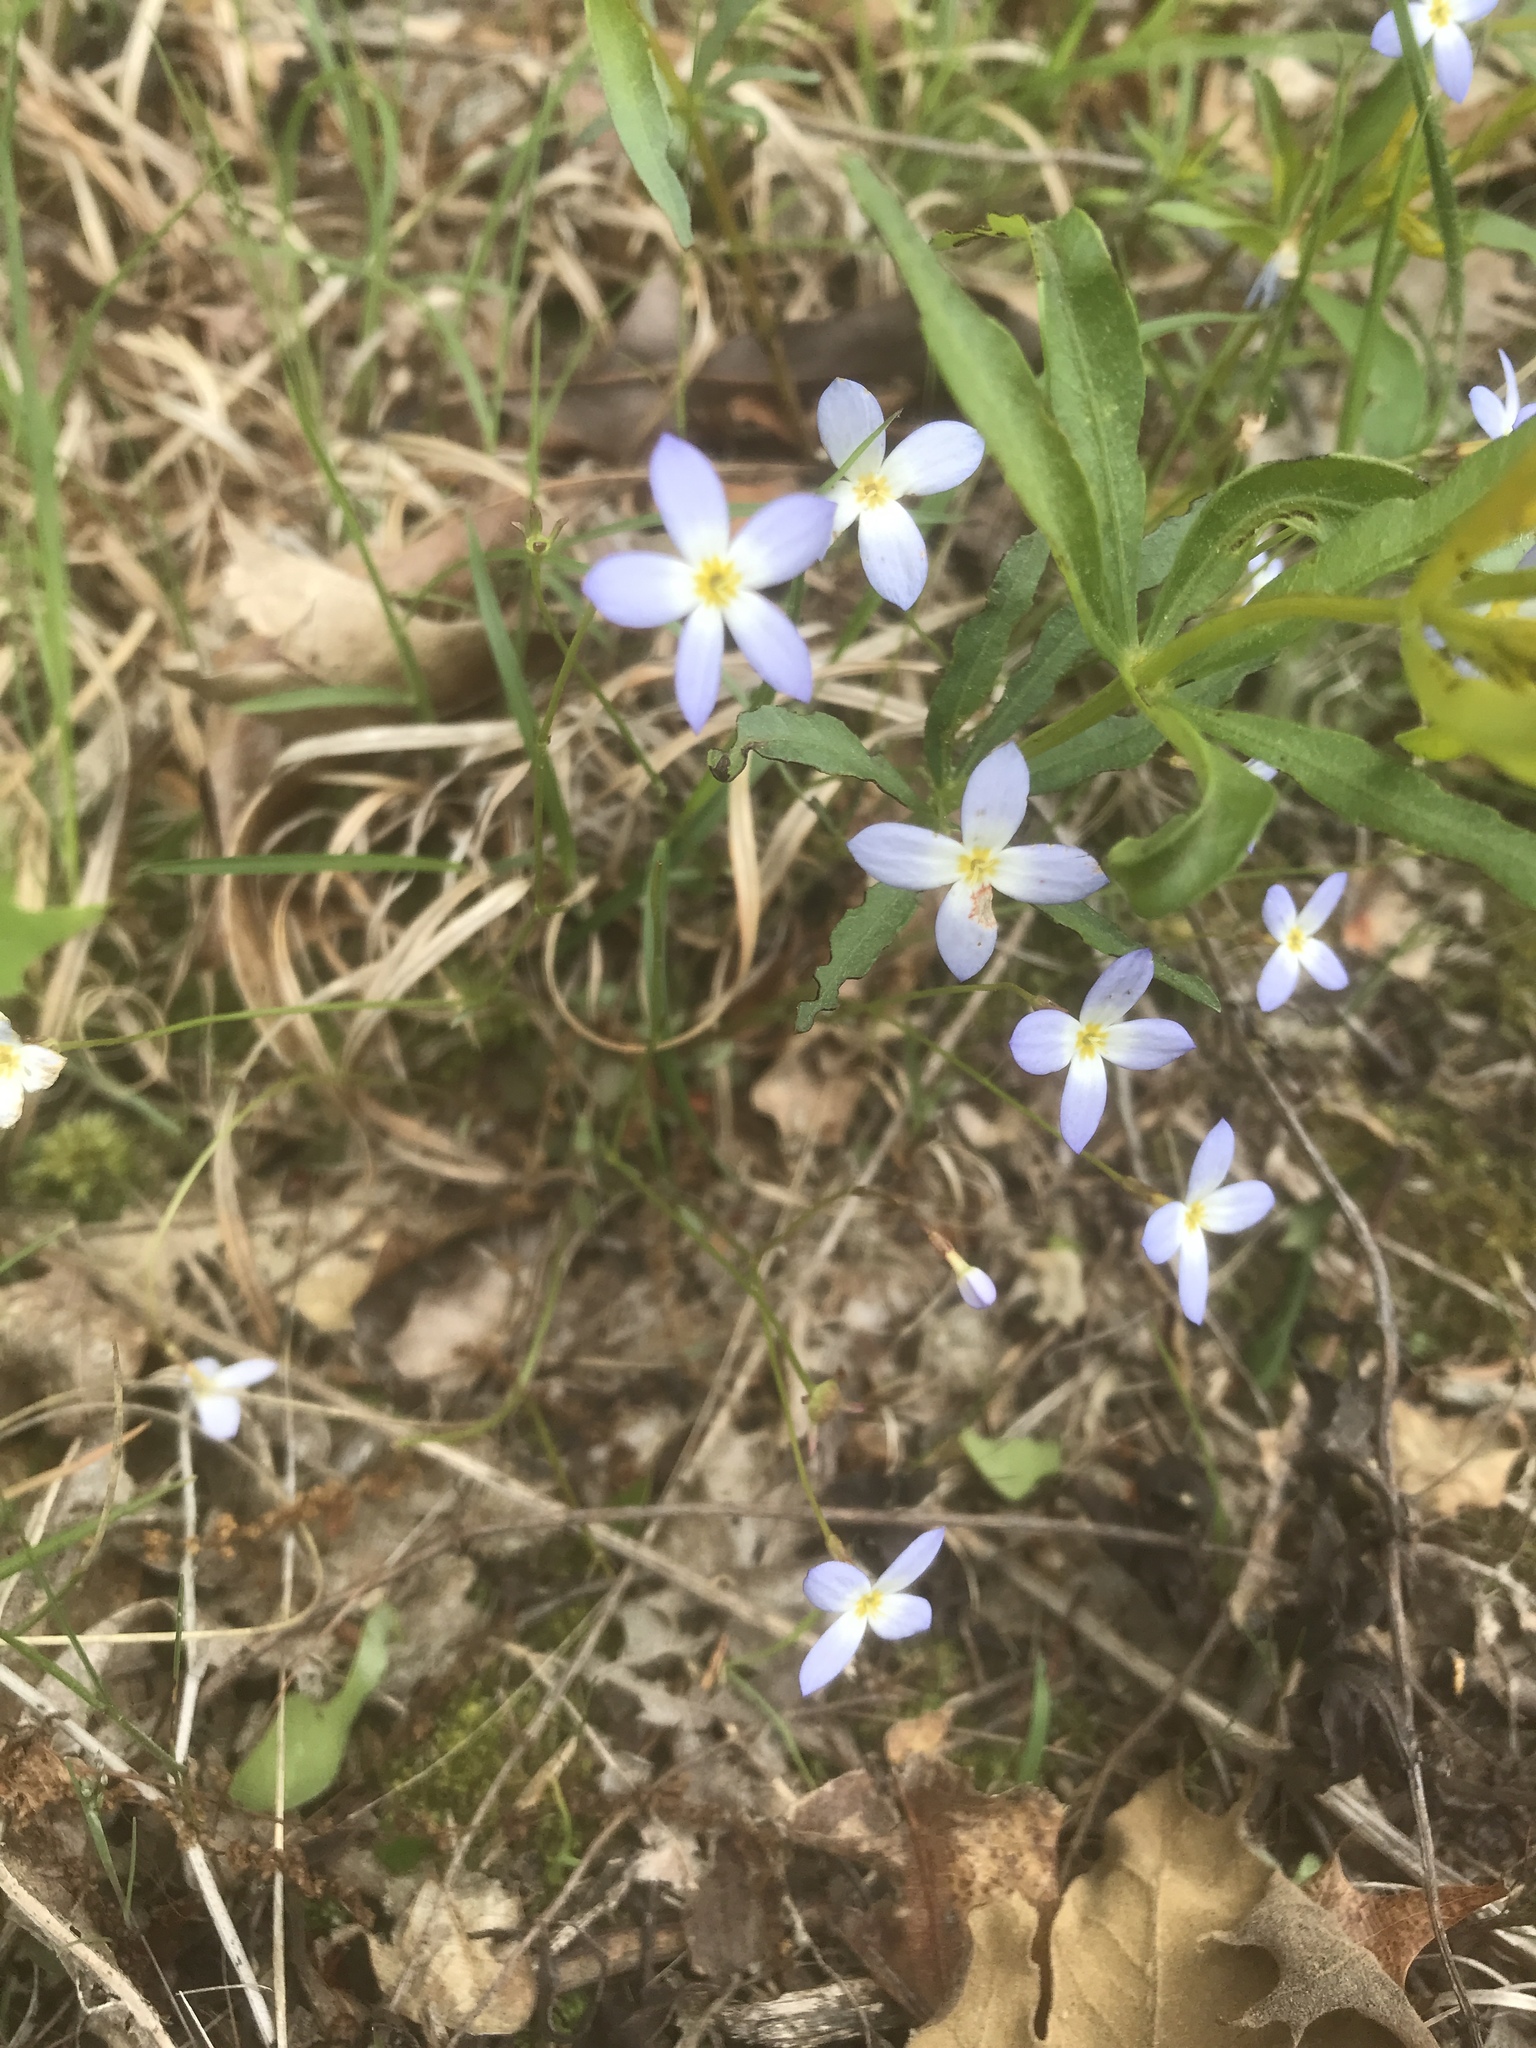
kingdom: Plantae
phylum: Tracheophyta
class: Magnoliopsida
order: Gentianales
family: Rubiaceae
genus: Houstonia
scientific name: Houstonia caerulea
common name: Bluets
